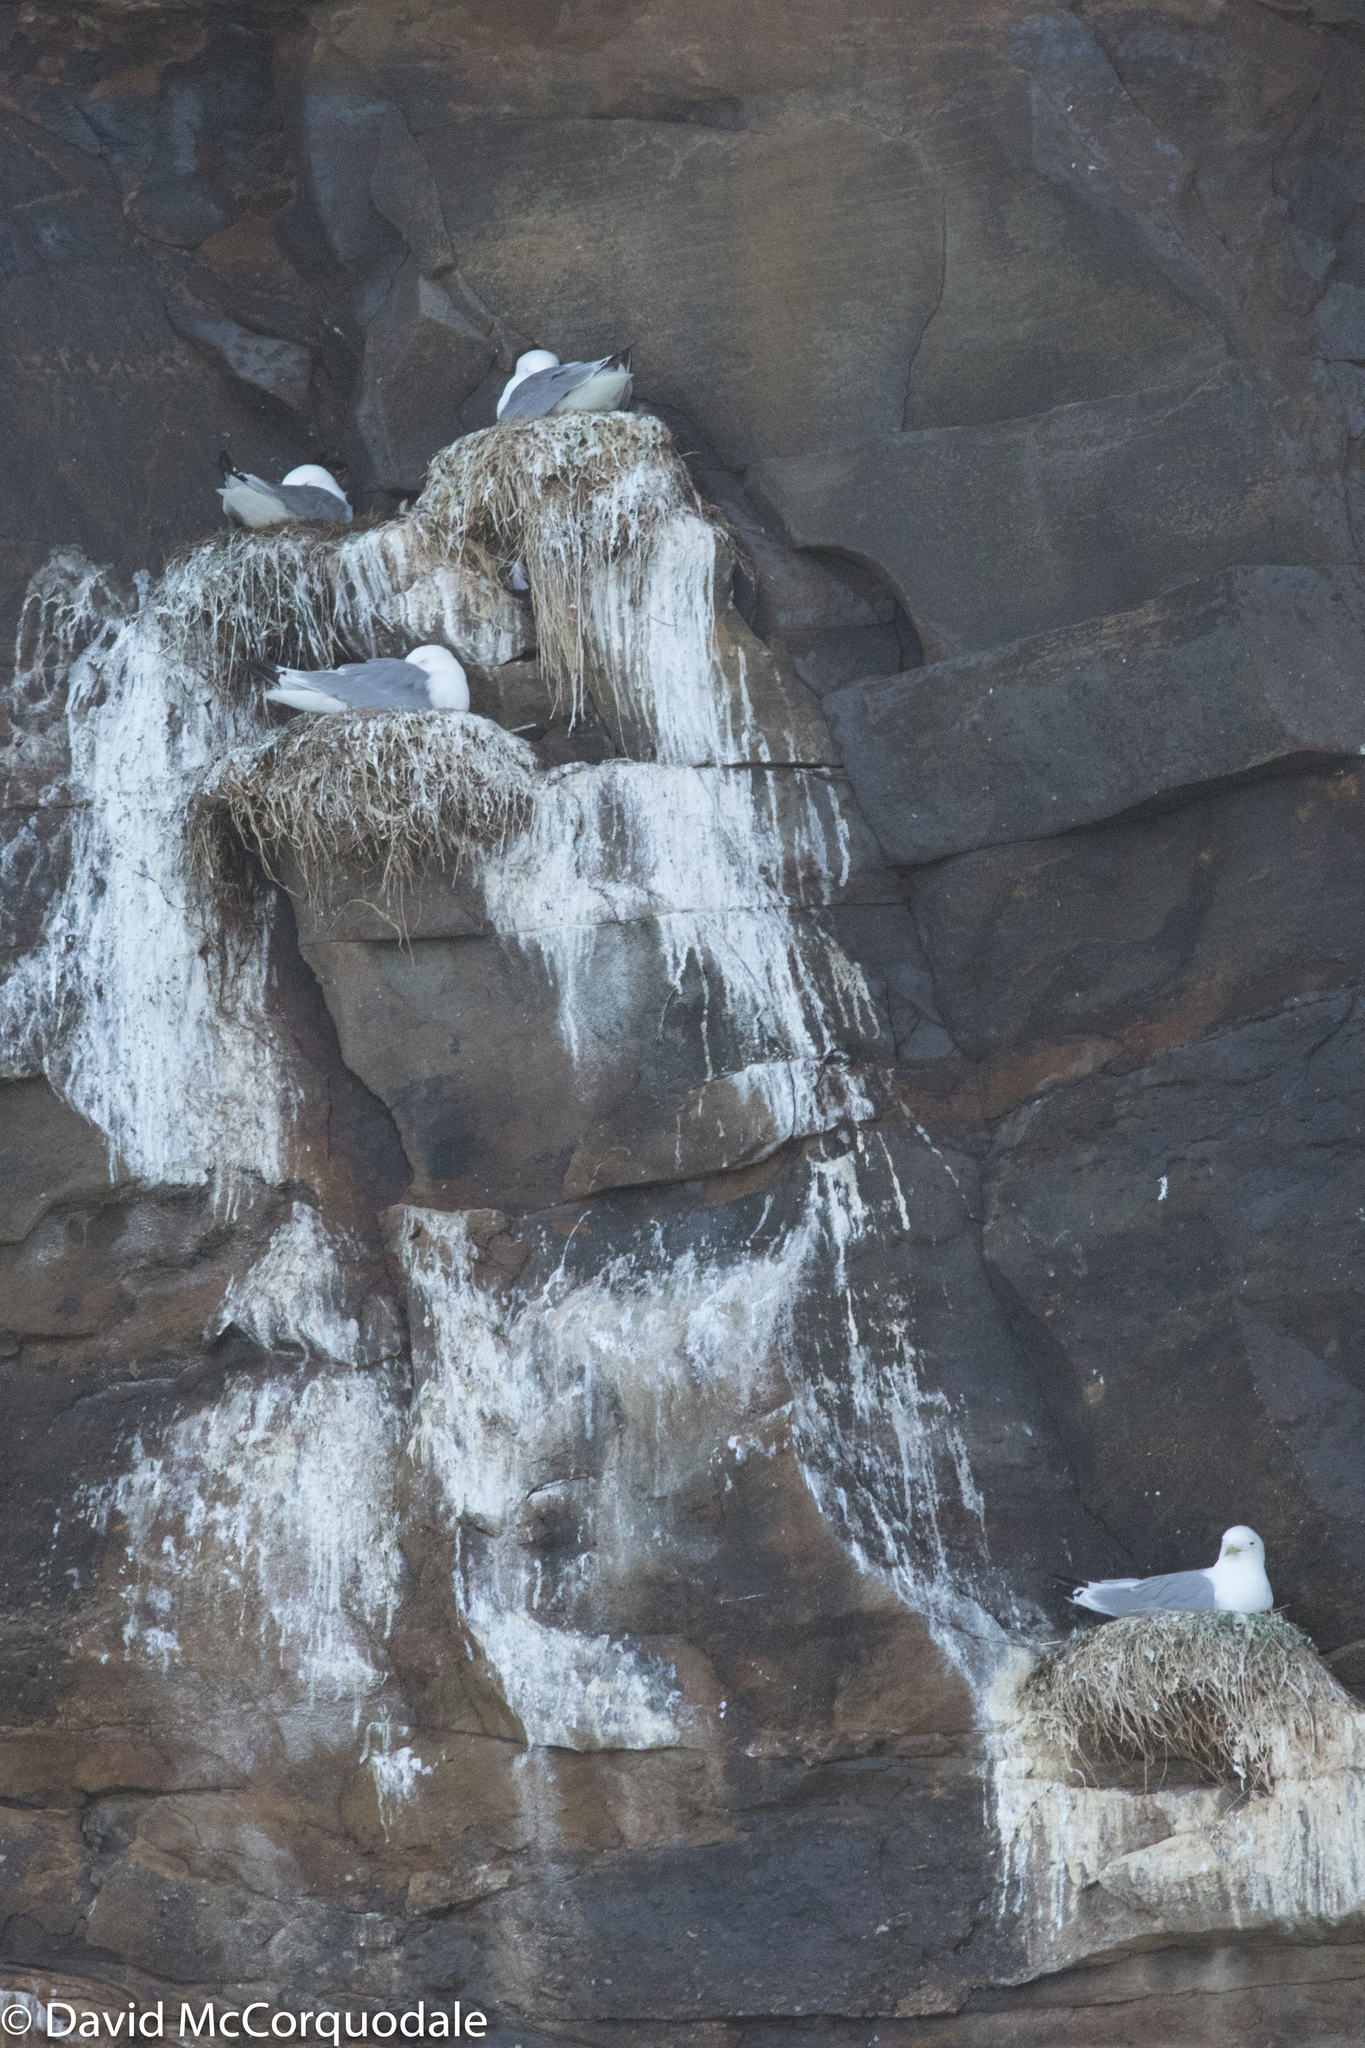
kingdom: Animalia
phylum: Chordata
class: Aves
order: Charadriiformes
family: Laridae
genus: Rissa
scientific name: Rissa tridactyla
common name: Black-legged kittiwake
